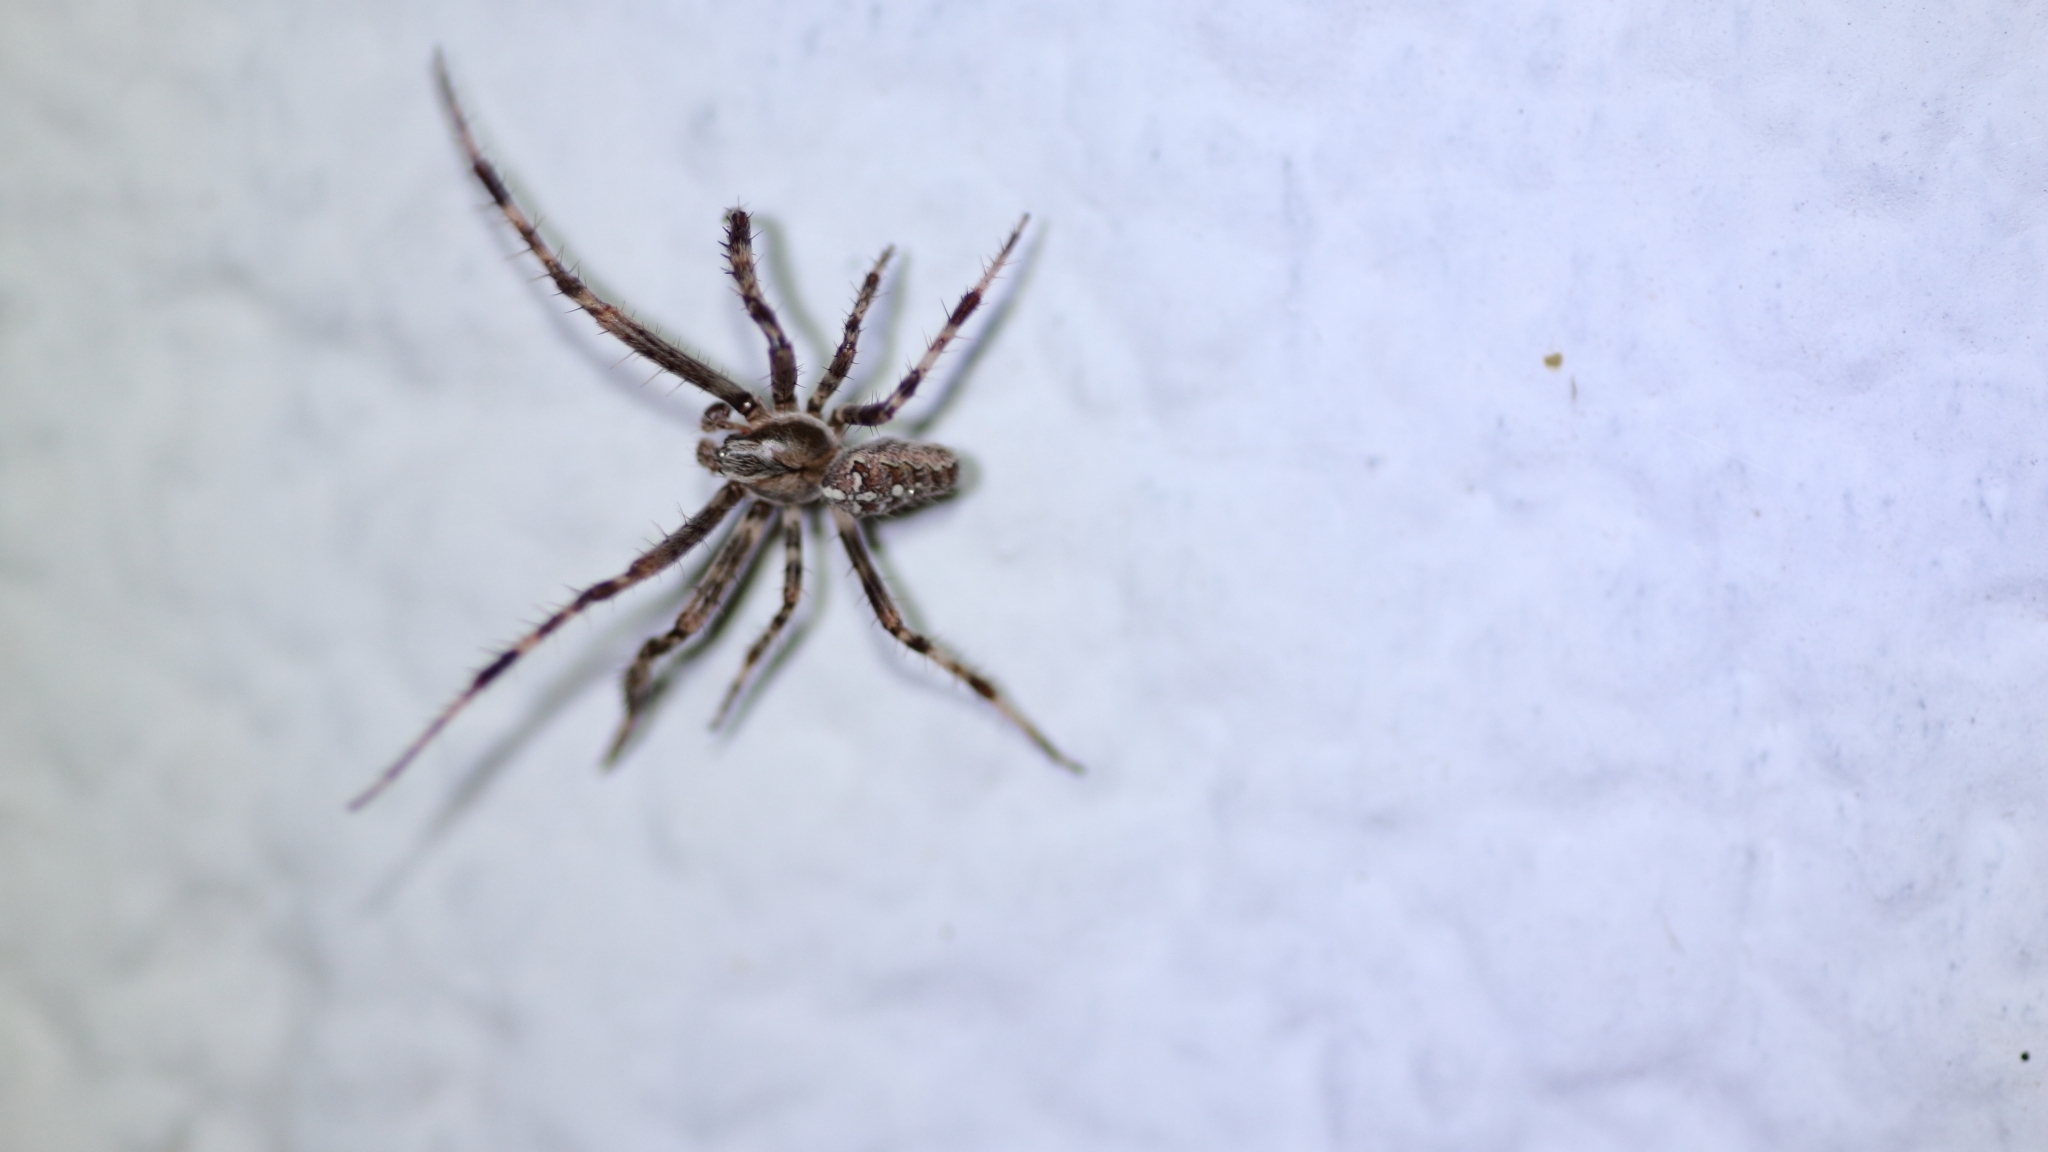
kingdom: Animalia
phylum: Arthropoda
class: Arachnida
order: Araneae
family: Araneidae
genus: Araneus
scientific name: Araneus diadematus
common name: Cross orbweaver
